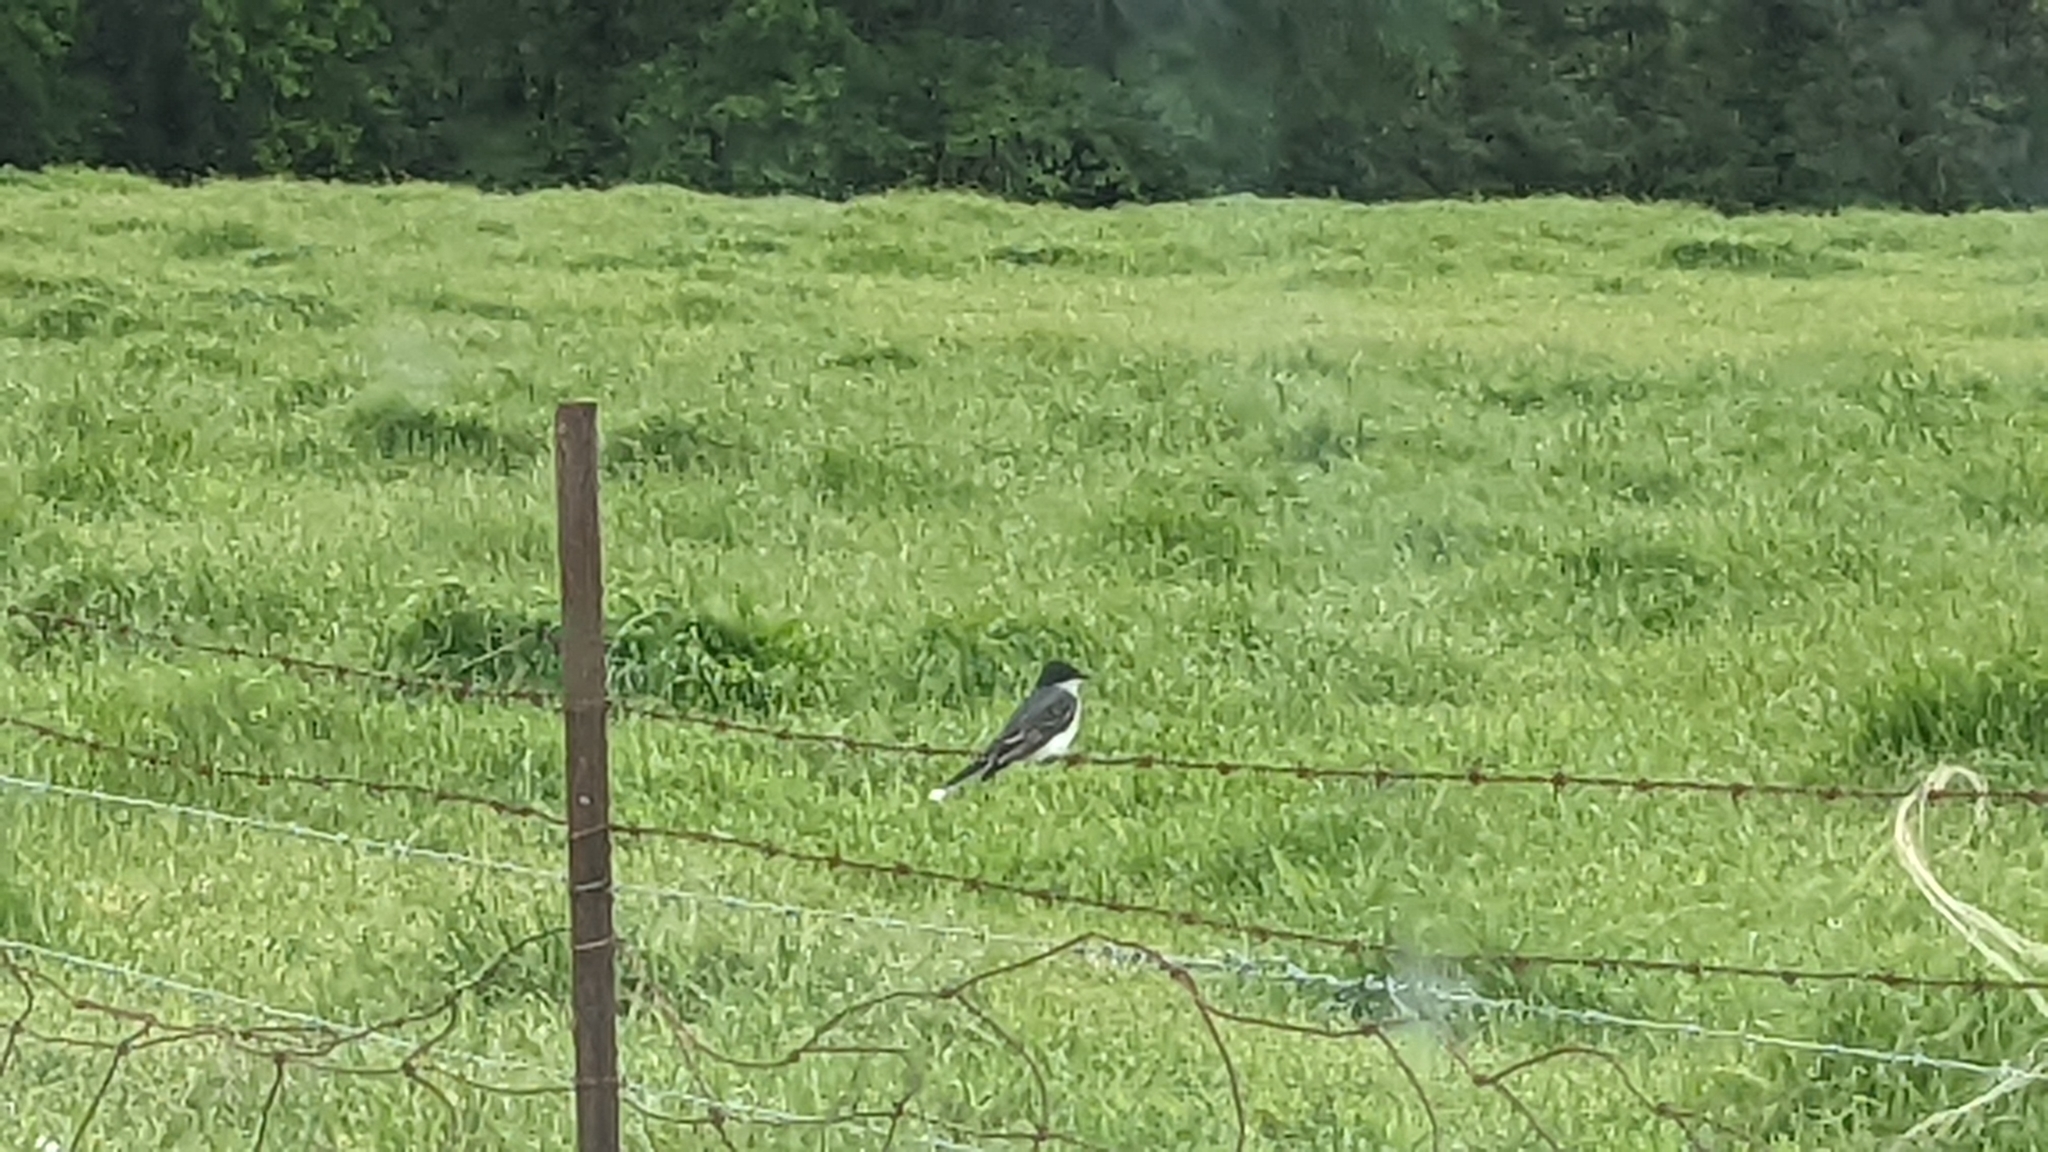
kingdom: Animalia
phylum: Chordata
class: Aves
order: Passeriformes
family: Tyrannidae
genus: Tyrannus
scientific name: Tyrannus tyrannus
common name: Eastern kingbird
